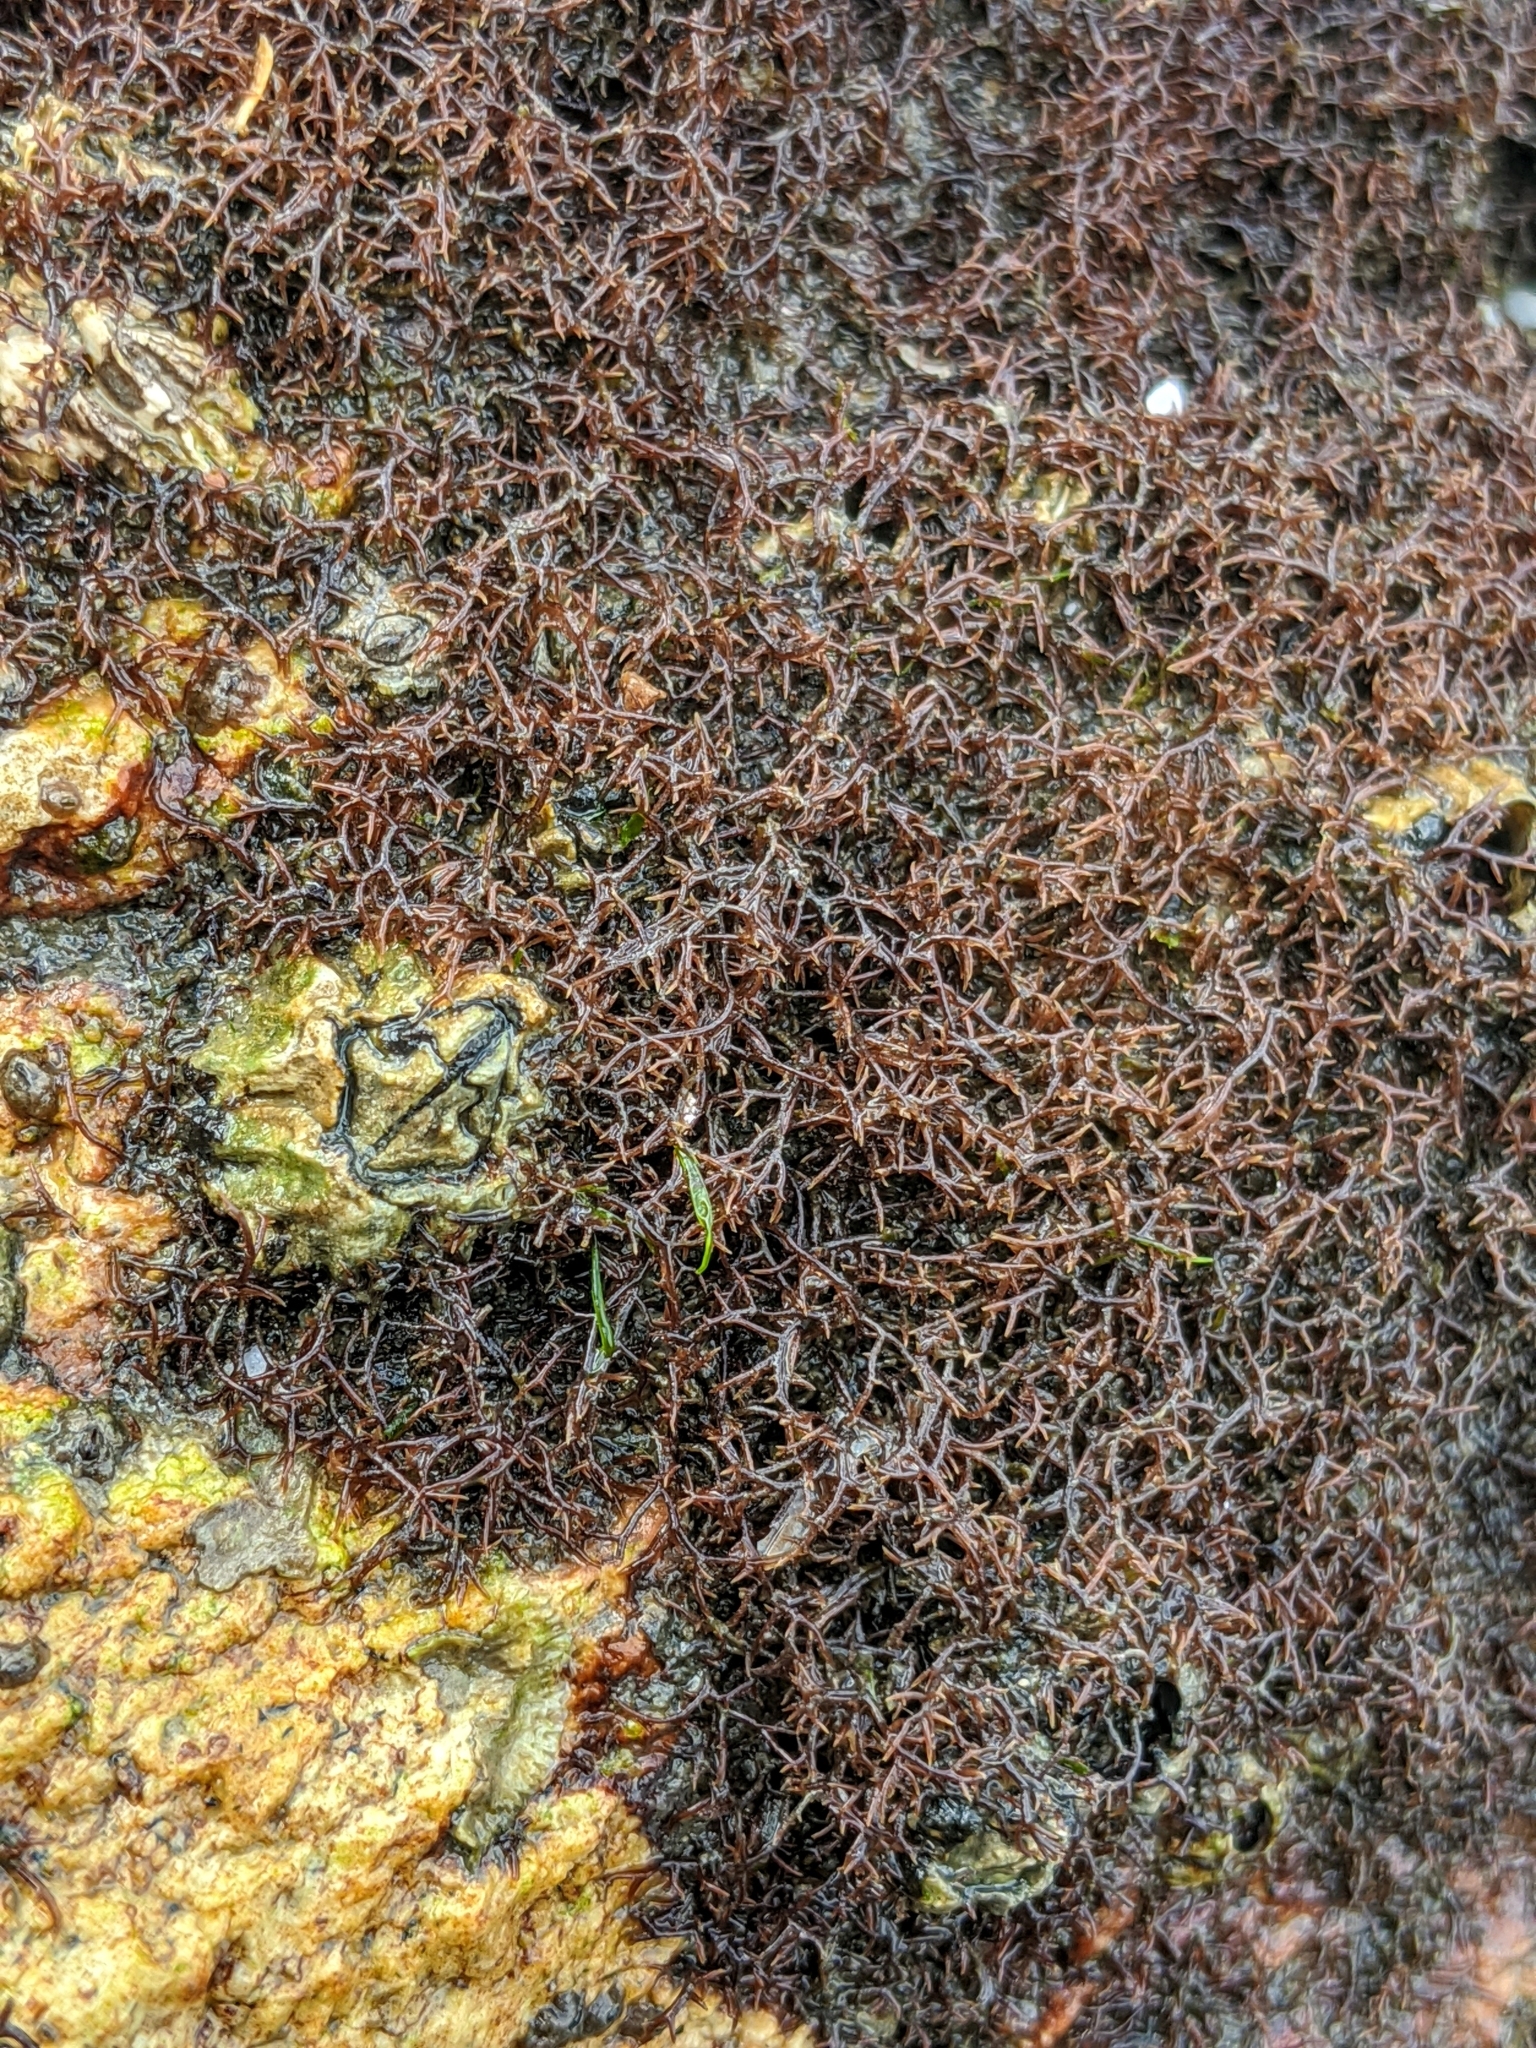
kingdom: Plantae
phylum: Rhodophyta
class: Florideophyceae
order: Gigartinales
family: Caulacanthaceae
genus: Caulacanthus
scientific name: Caulacanthus ustulatus
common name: Red algae
